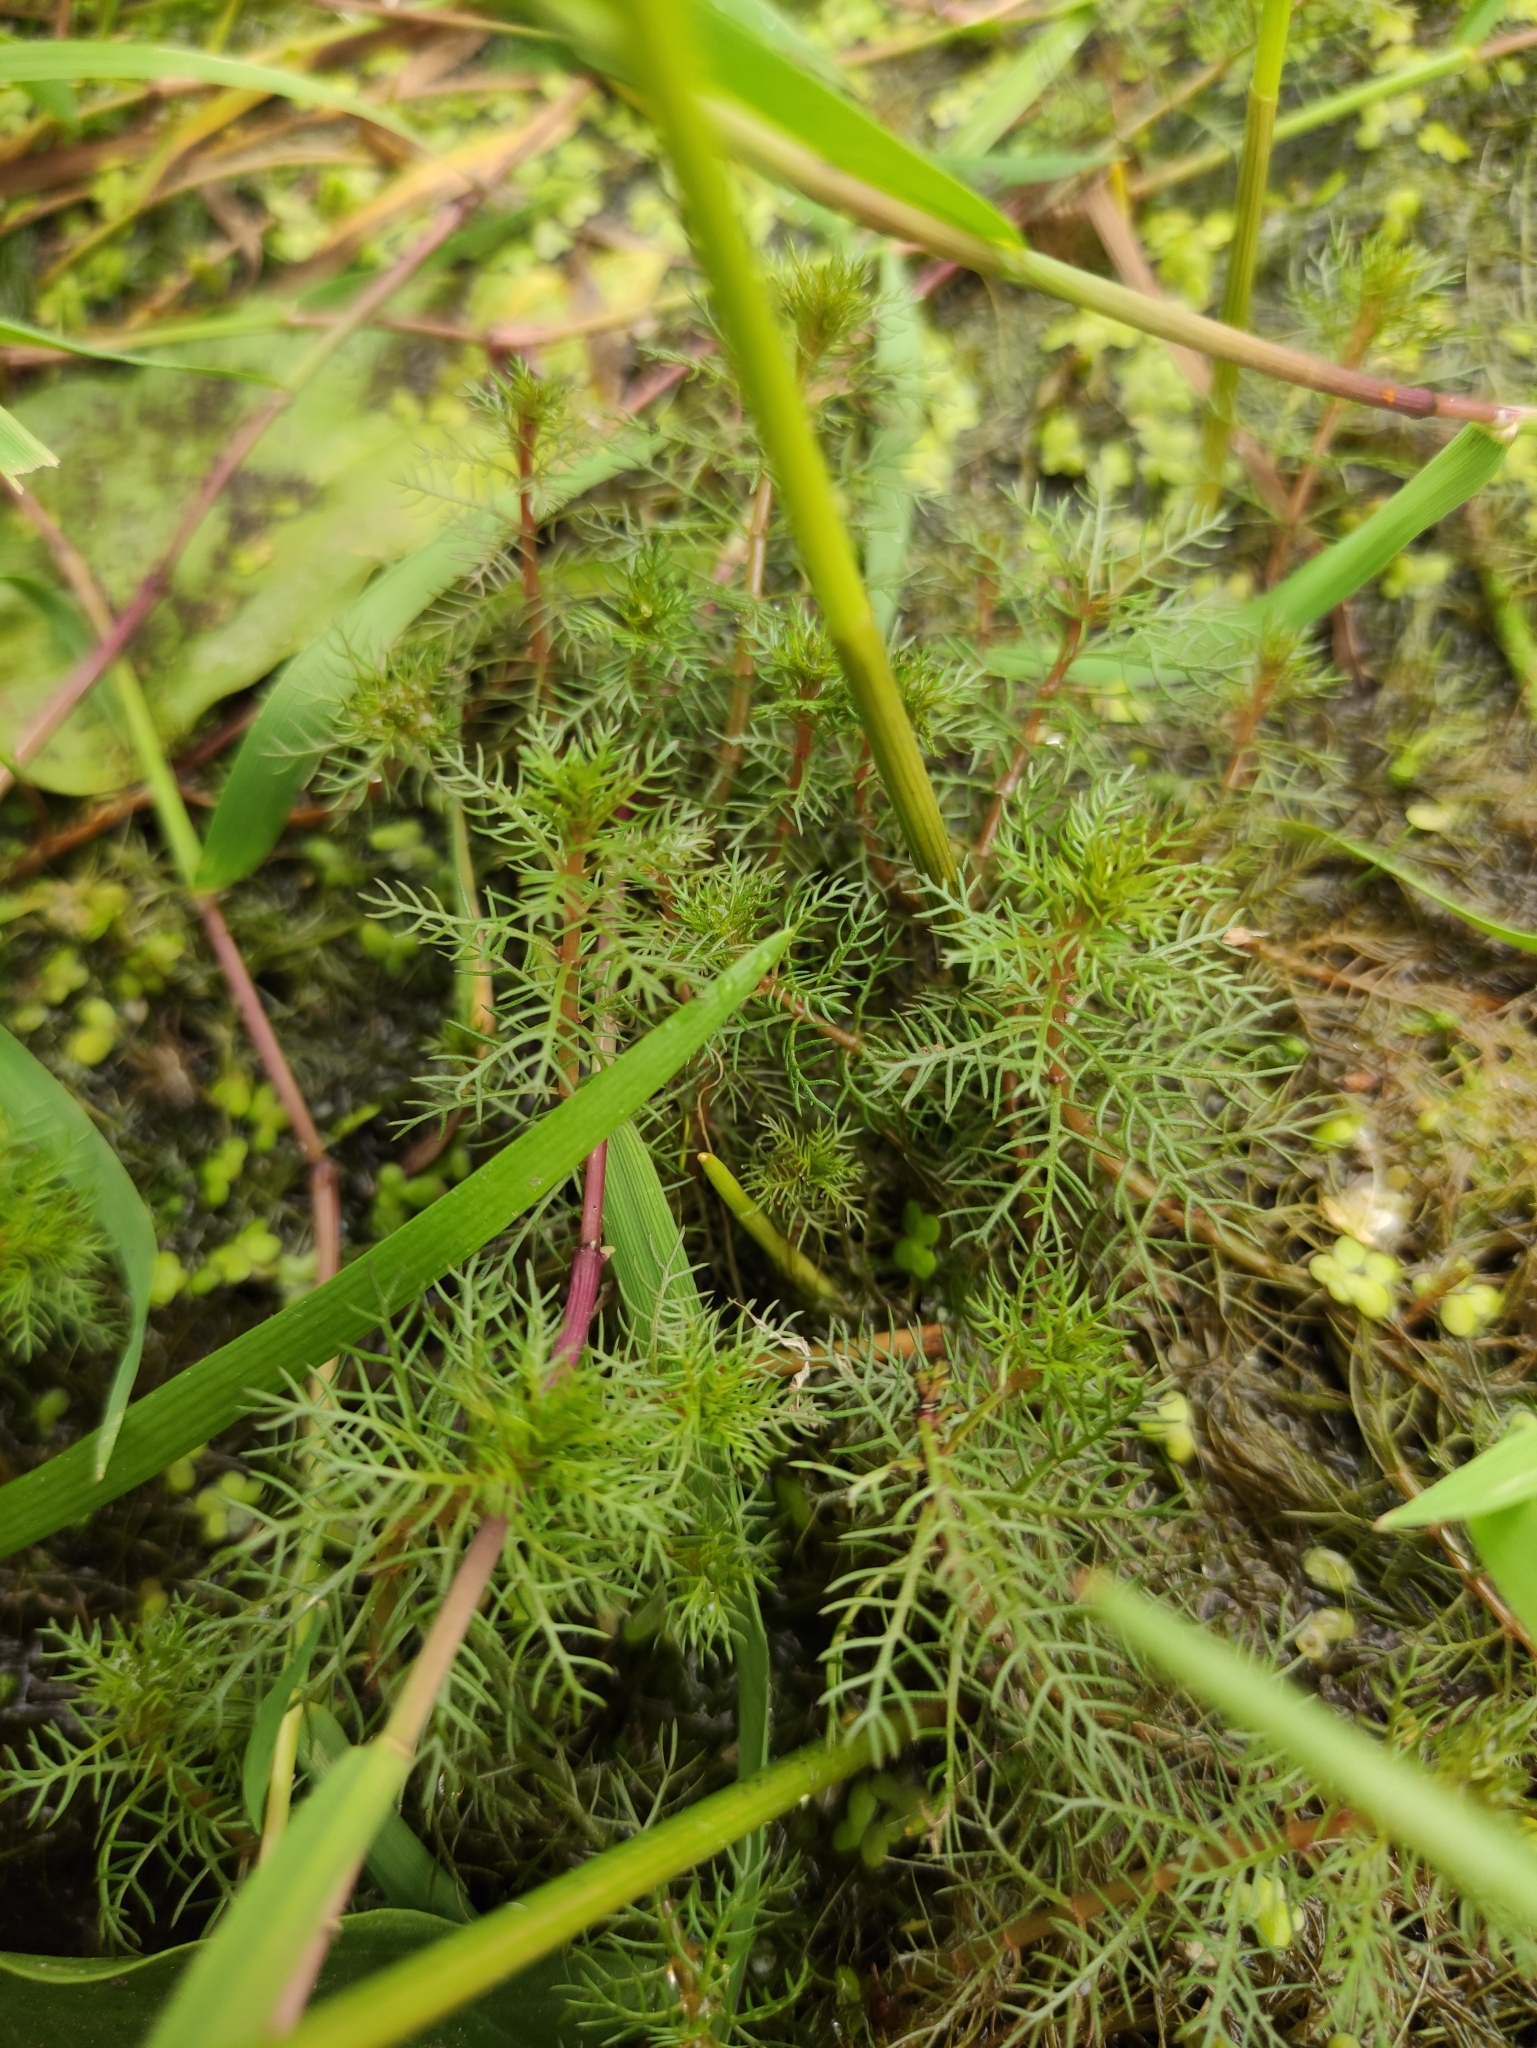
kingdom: Plantae
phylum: Tracheophyta
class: Magnoliopsida
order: Saxifragales
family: Haloragaceae
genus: Myriophyllum
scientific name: Myriophyllum verticillatum
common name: Whorled water-milfoil
